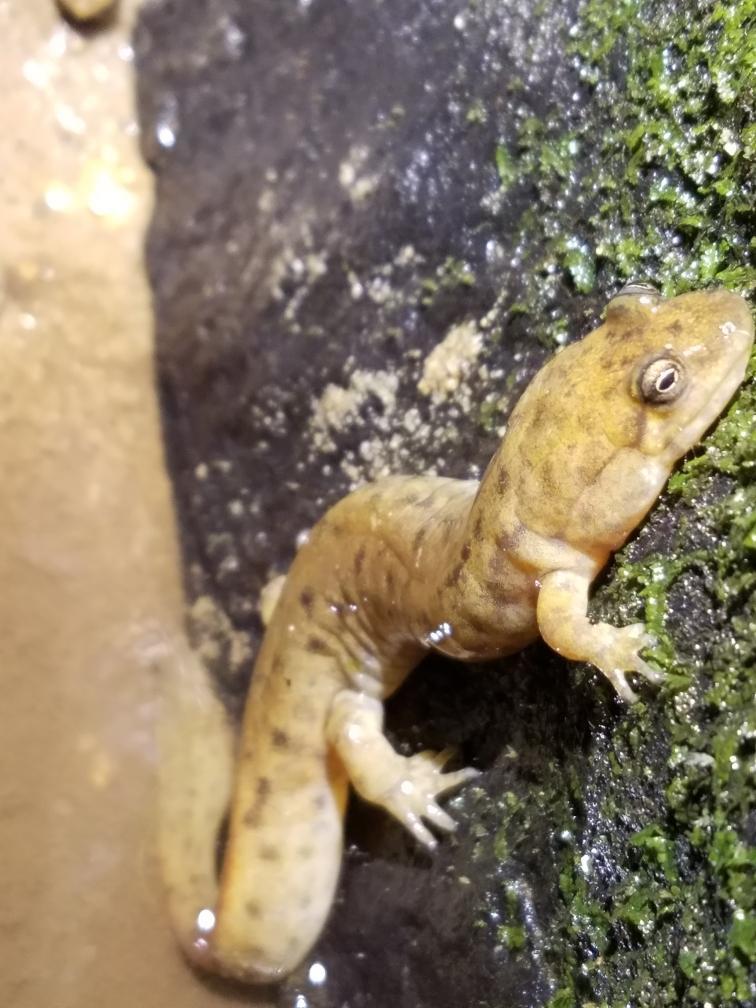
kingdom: Animalia
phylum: Chordata
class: Amphibia
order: Caudata
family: Plethodontidae
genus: Desmognathus
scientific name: Desmognathus welteri
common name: Black mountain salamander
